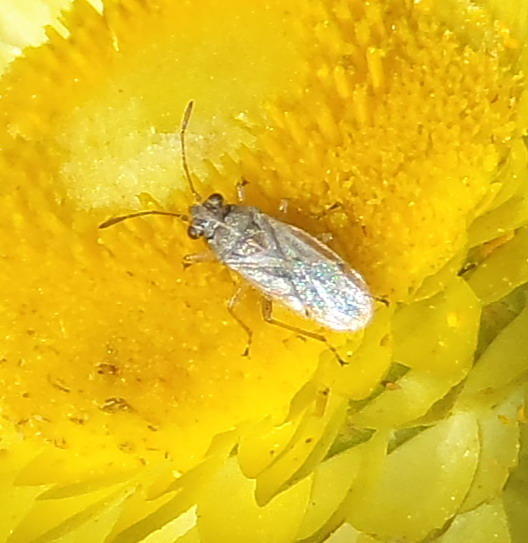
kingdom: Animalia
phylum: Arthropoda
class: Insecta
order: Hemiptera
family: Lygaeidae
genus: Nysius
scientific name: Nysius senecionis
